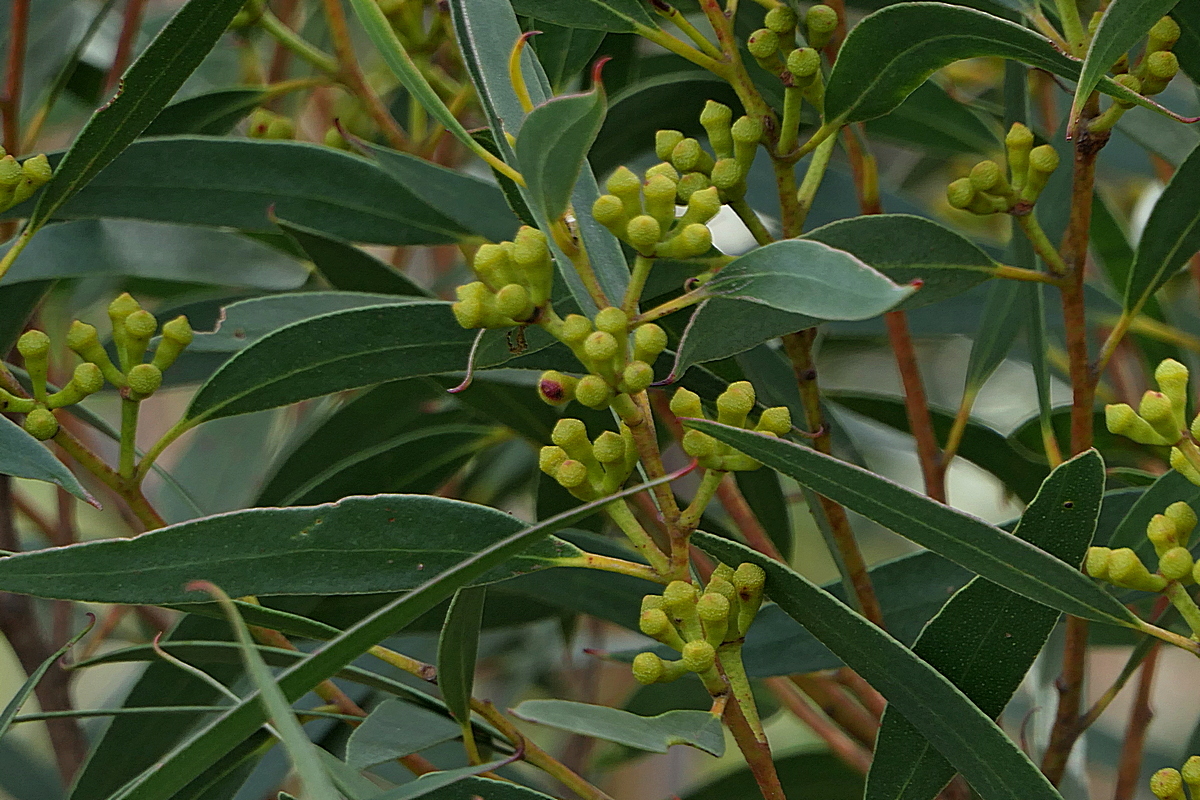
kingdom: Plantae
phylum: Tracheophyta
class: Magnoliopsida
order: Myrtales
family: Myrtaceae
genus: Eucalyptus
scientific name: Eucalyptus spectatrix
